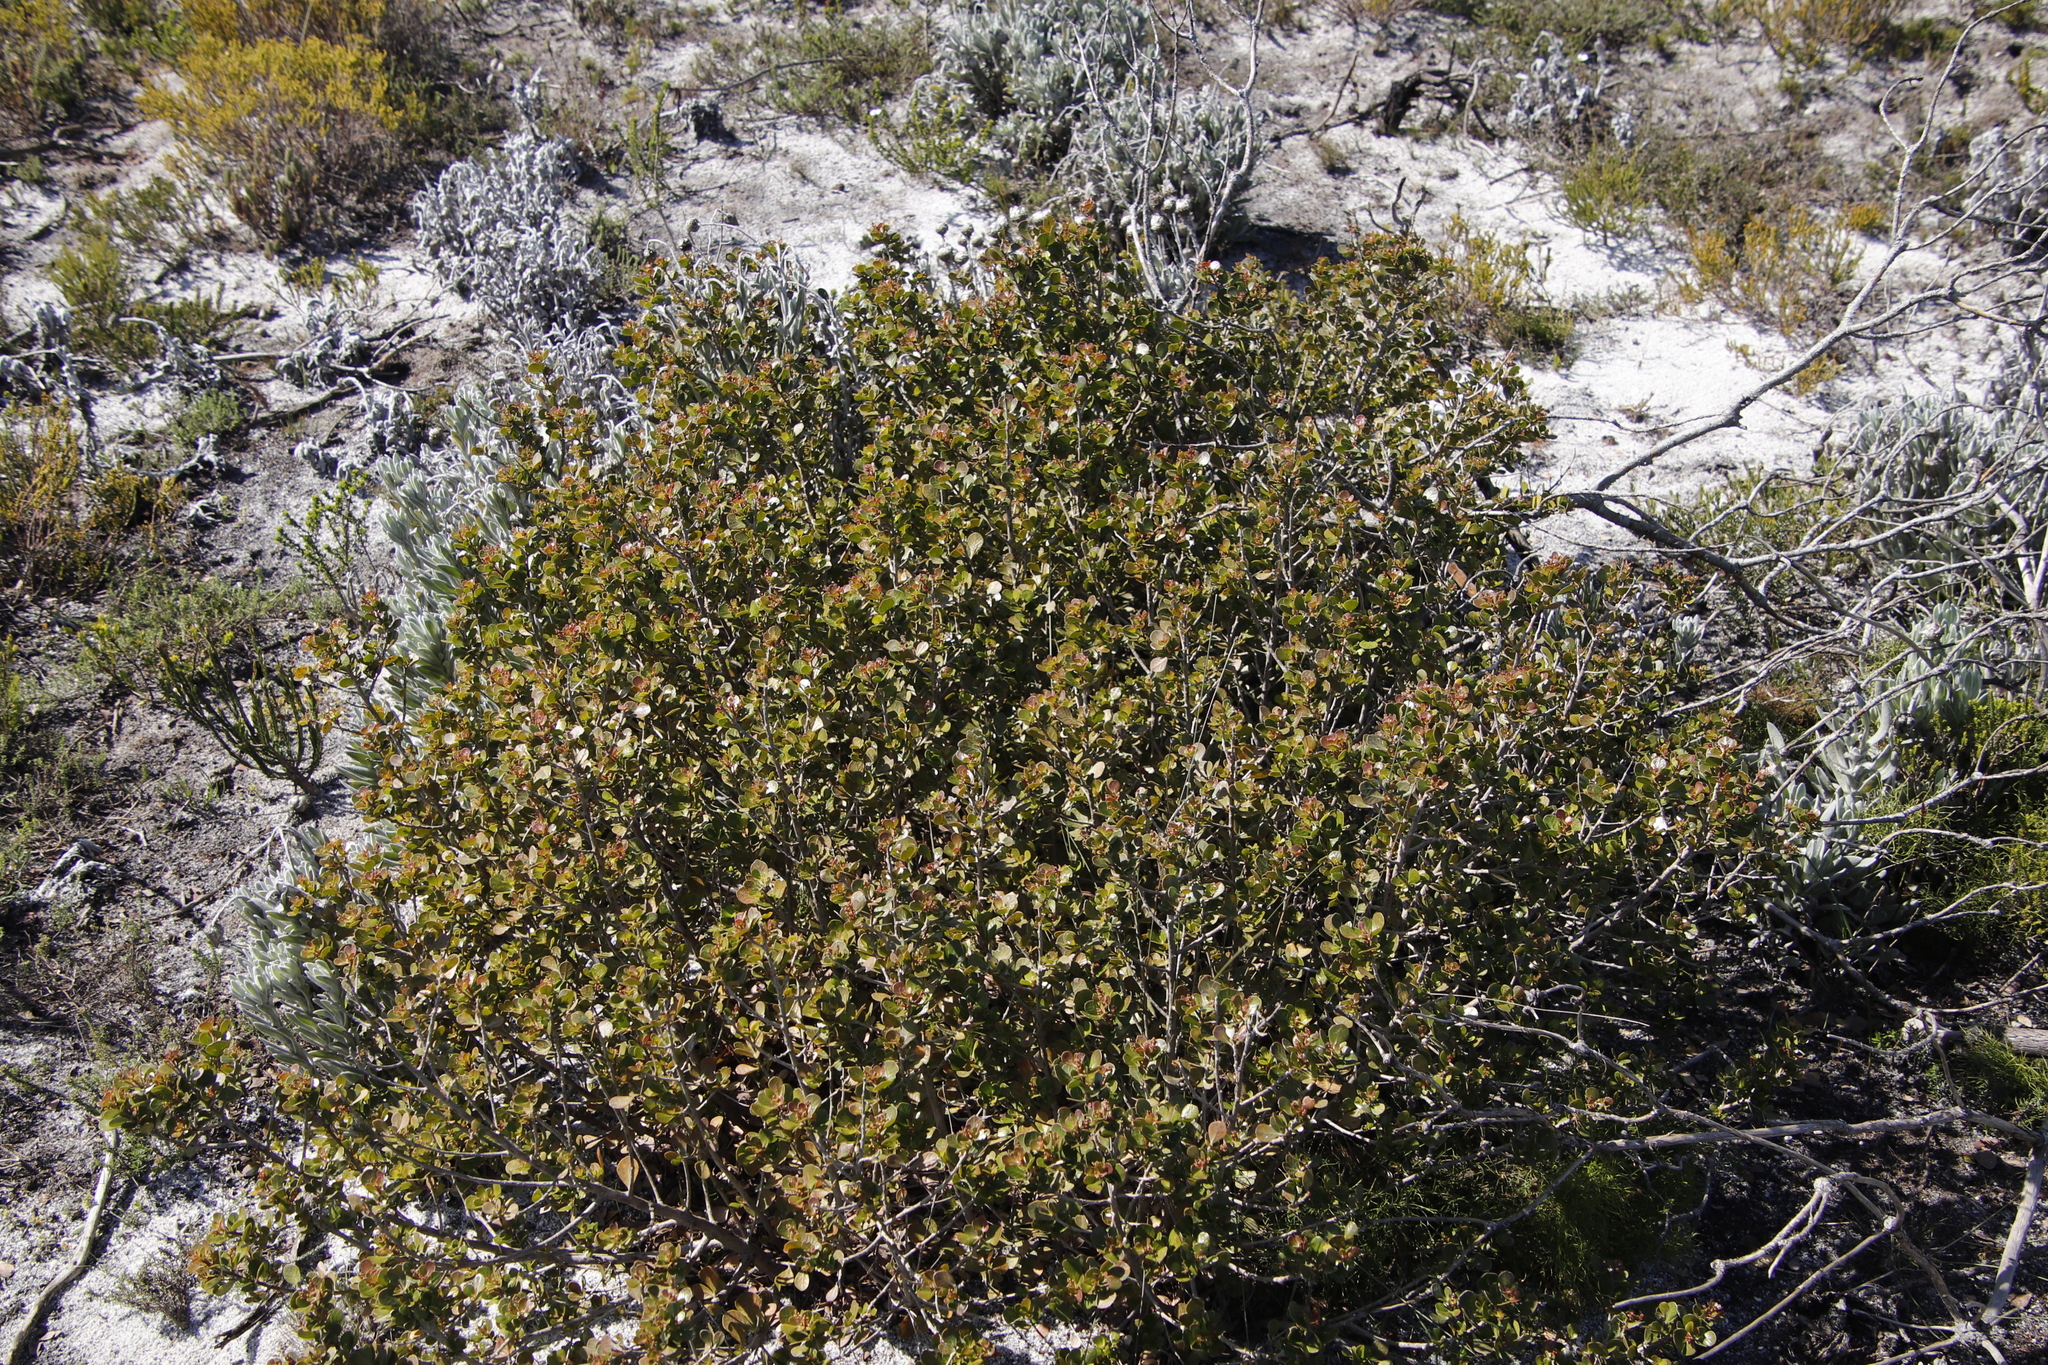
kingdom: Plantae
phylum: Tracheophyta
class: Magnoliopsida
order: Sapindales
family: Anacardiaceae
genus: Searsia
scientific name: Searsia lucida
